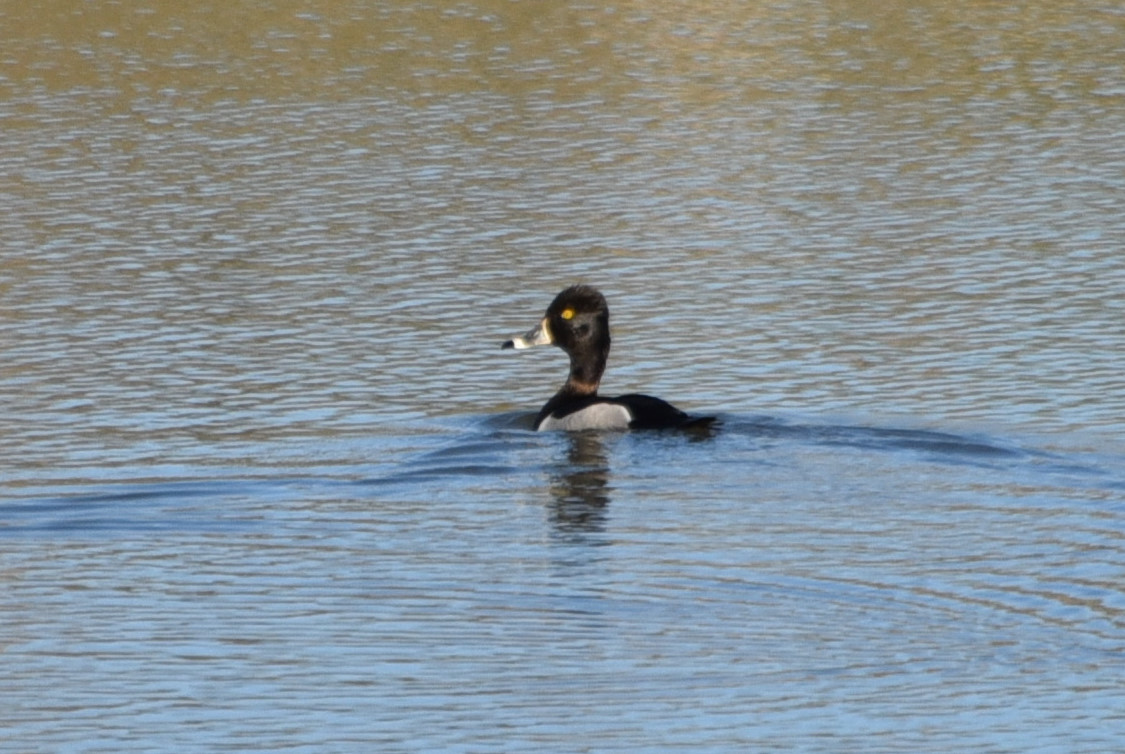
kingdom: Animalia
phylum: Chordata
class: Aves
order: Anseriformes
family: Anatidae
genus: Aythya
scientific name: Aythya collaris
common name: Ring-necked duck
